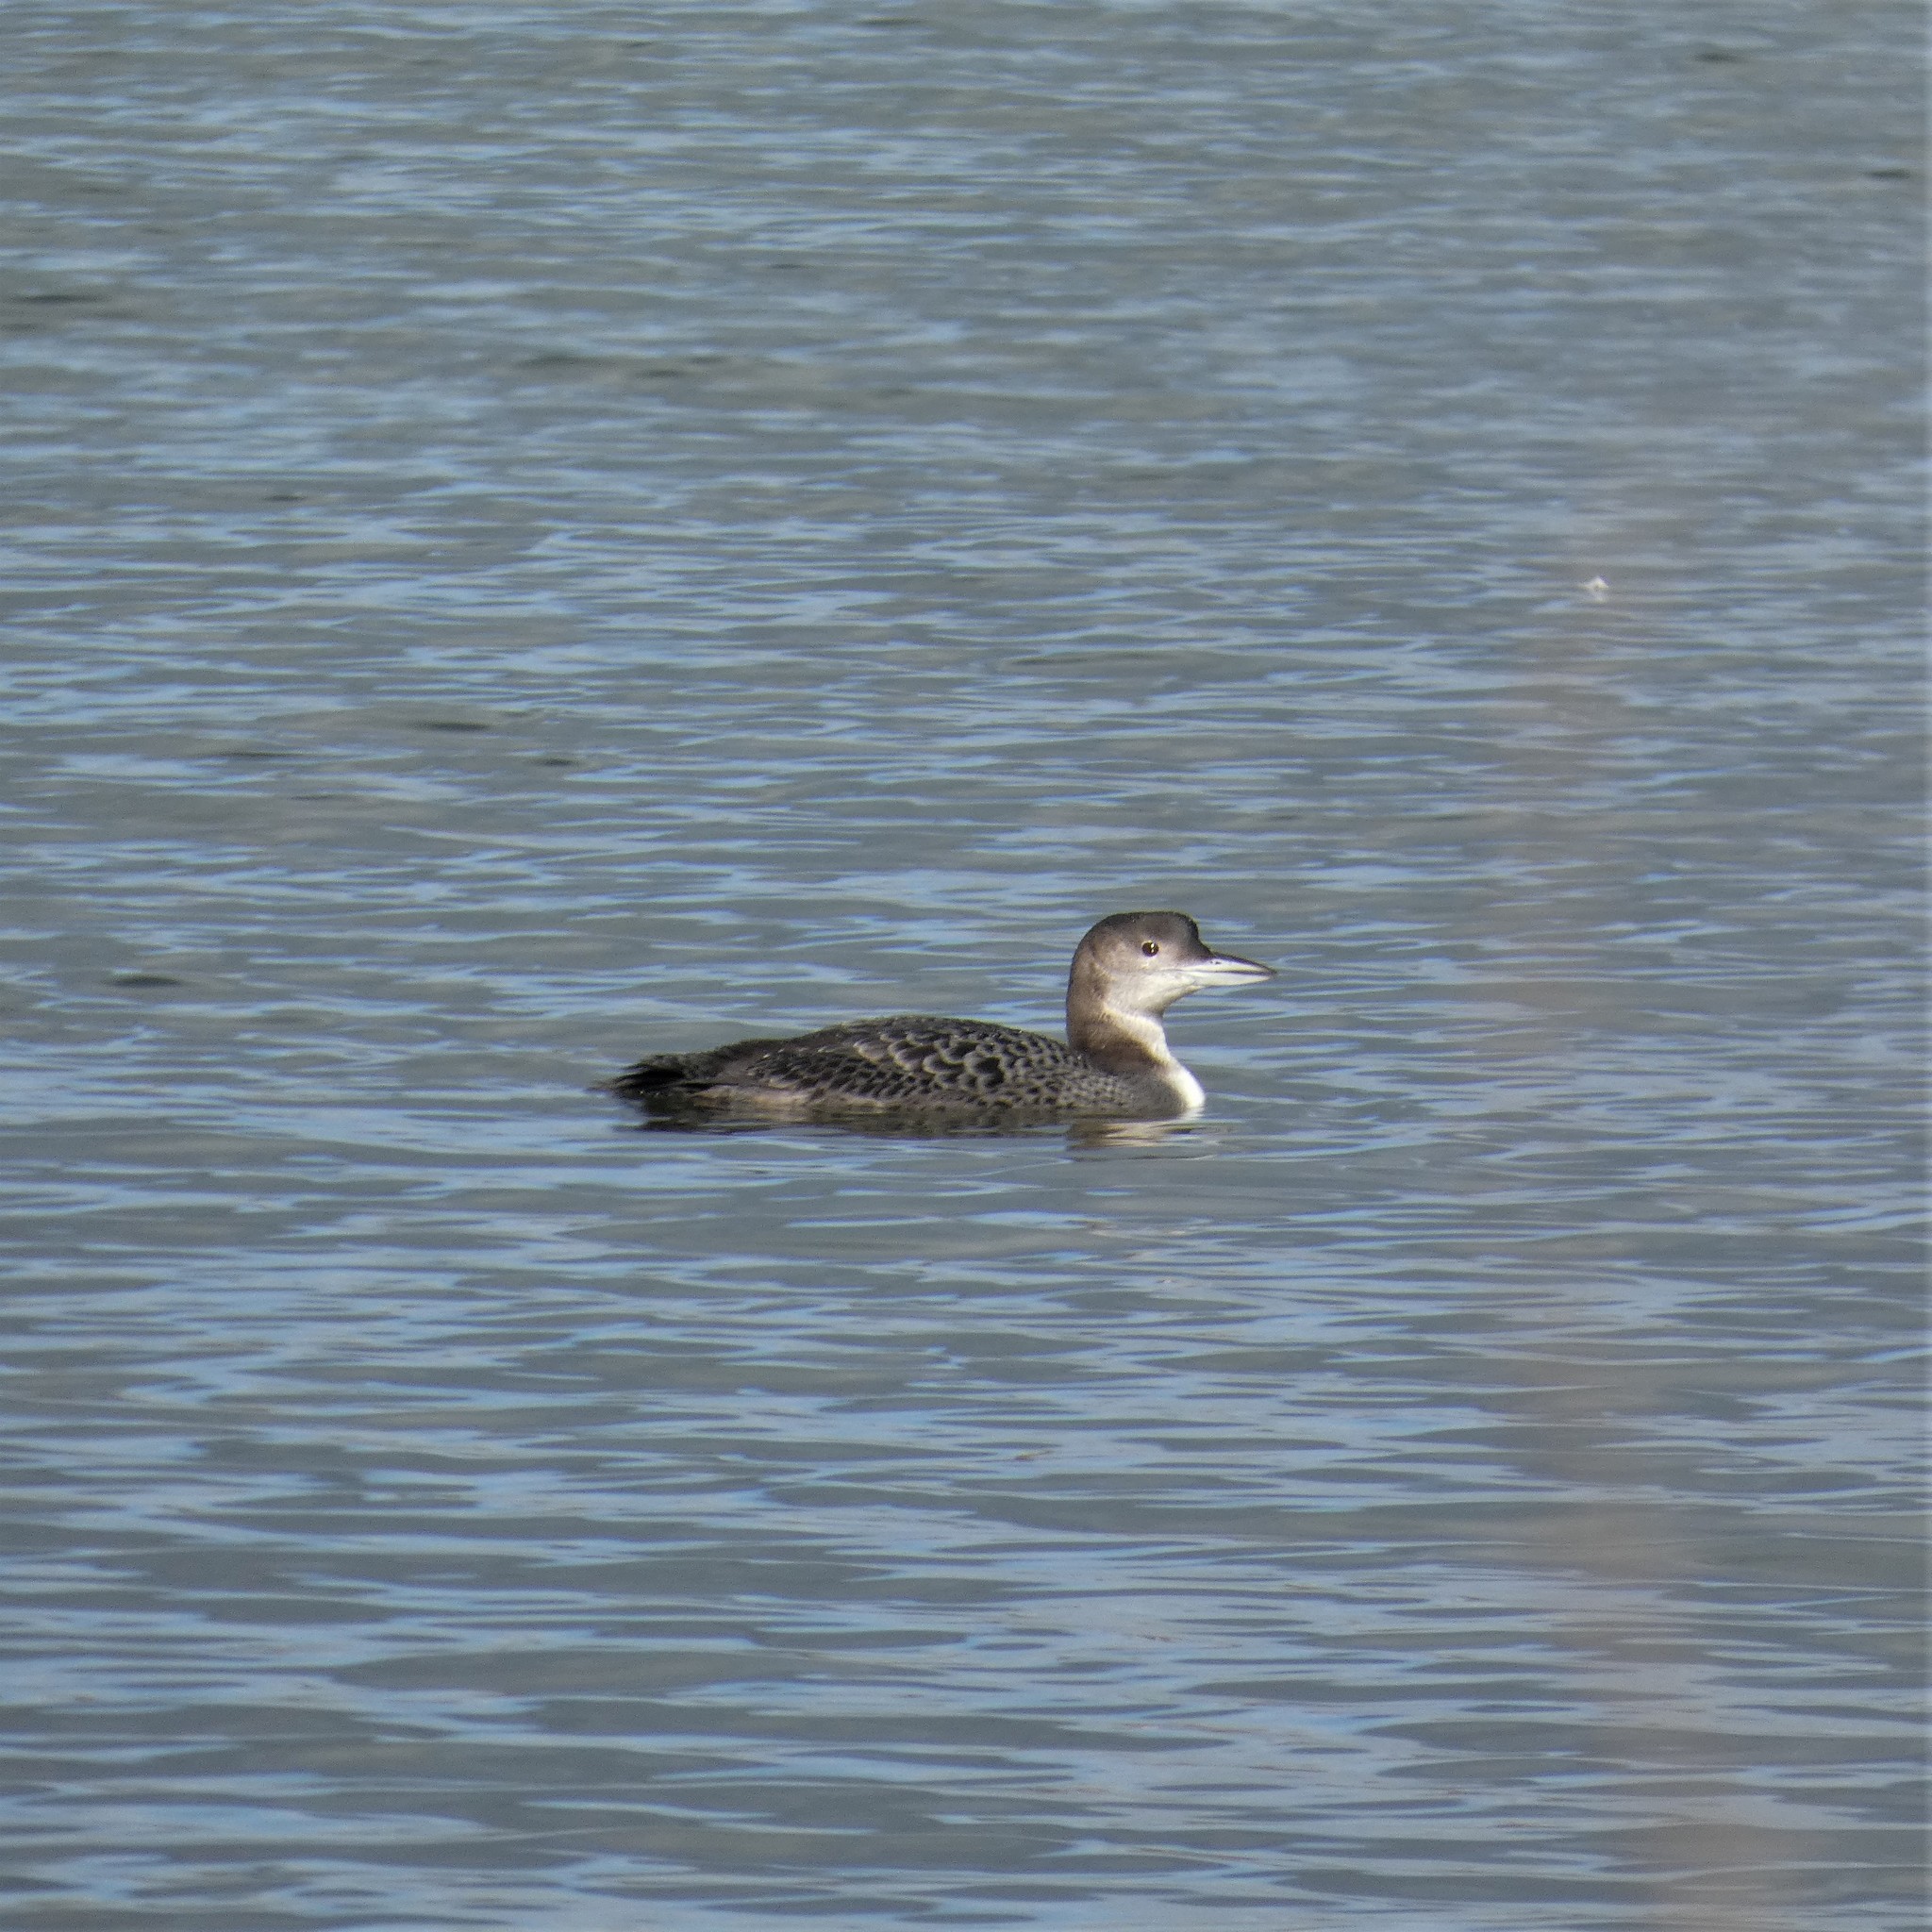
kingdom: Animalia
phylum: Chordata
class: Aves
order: Gaviiformes
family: Gaviidae
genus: Gavia
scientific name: Gavia immer
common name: Common loon
